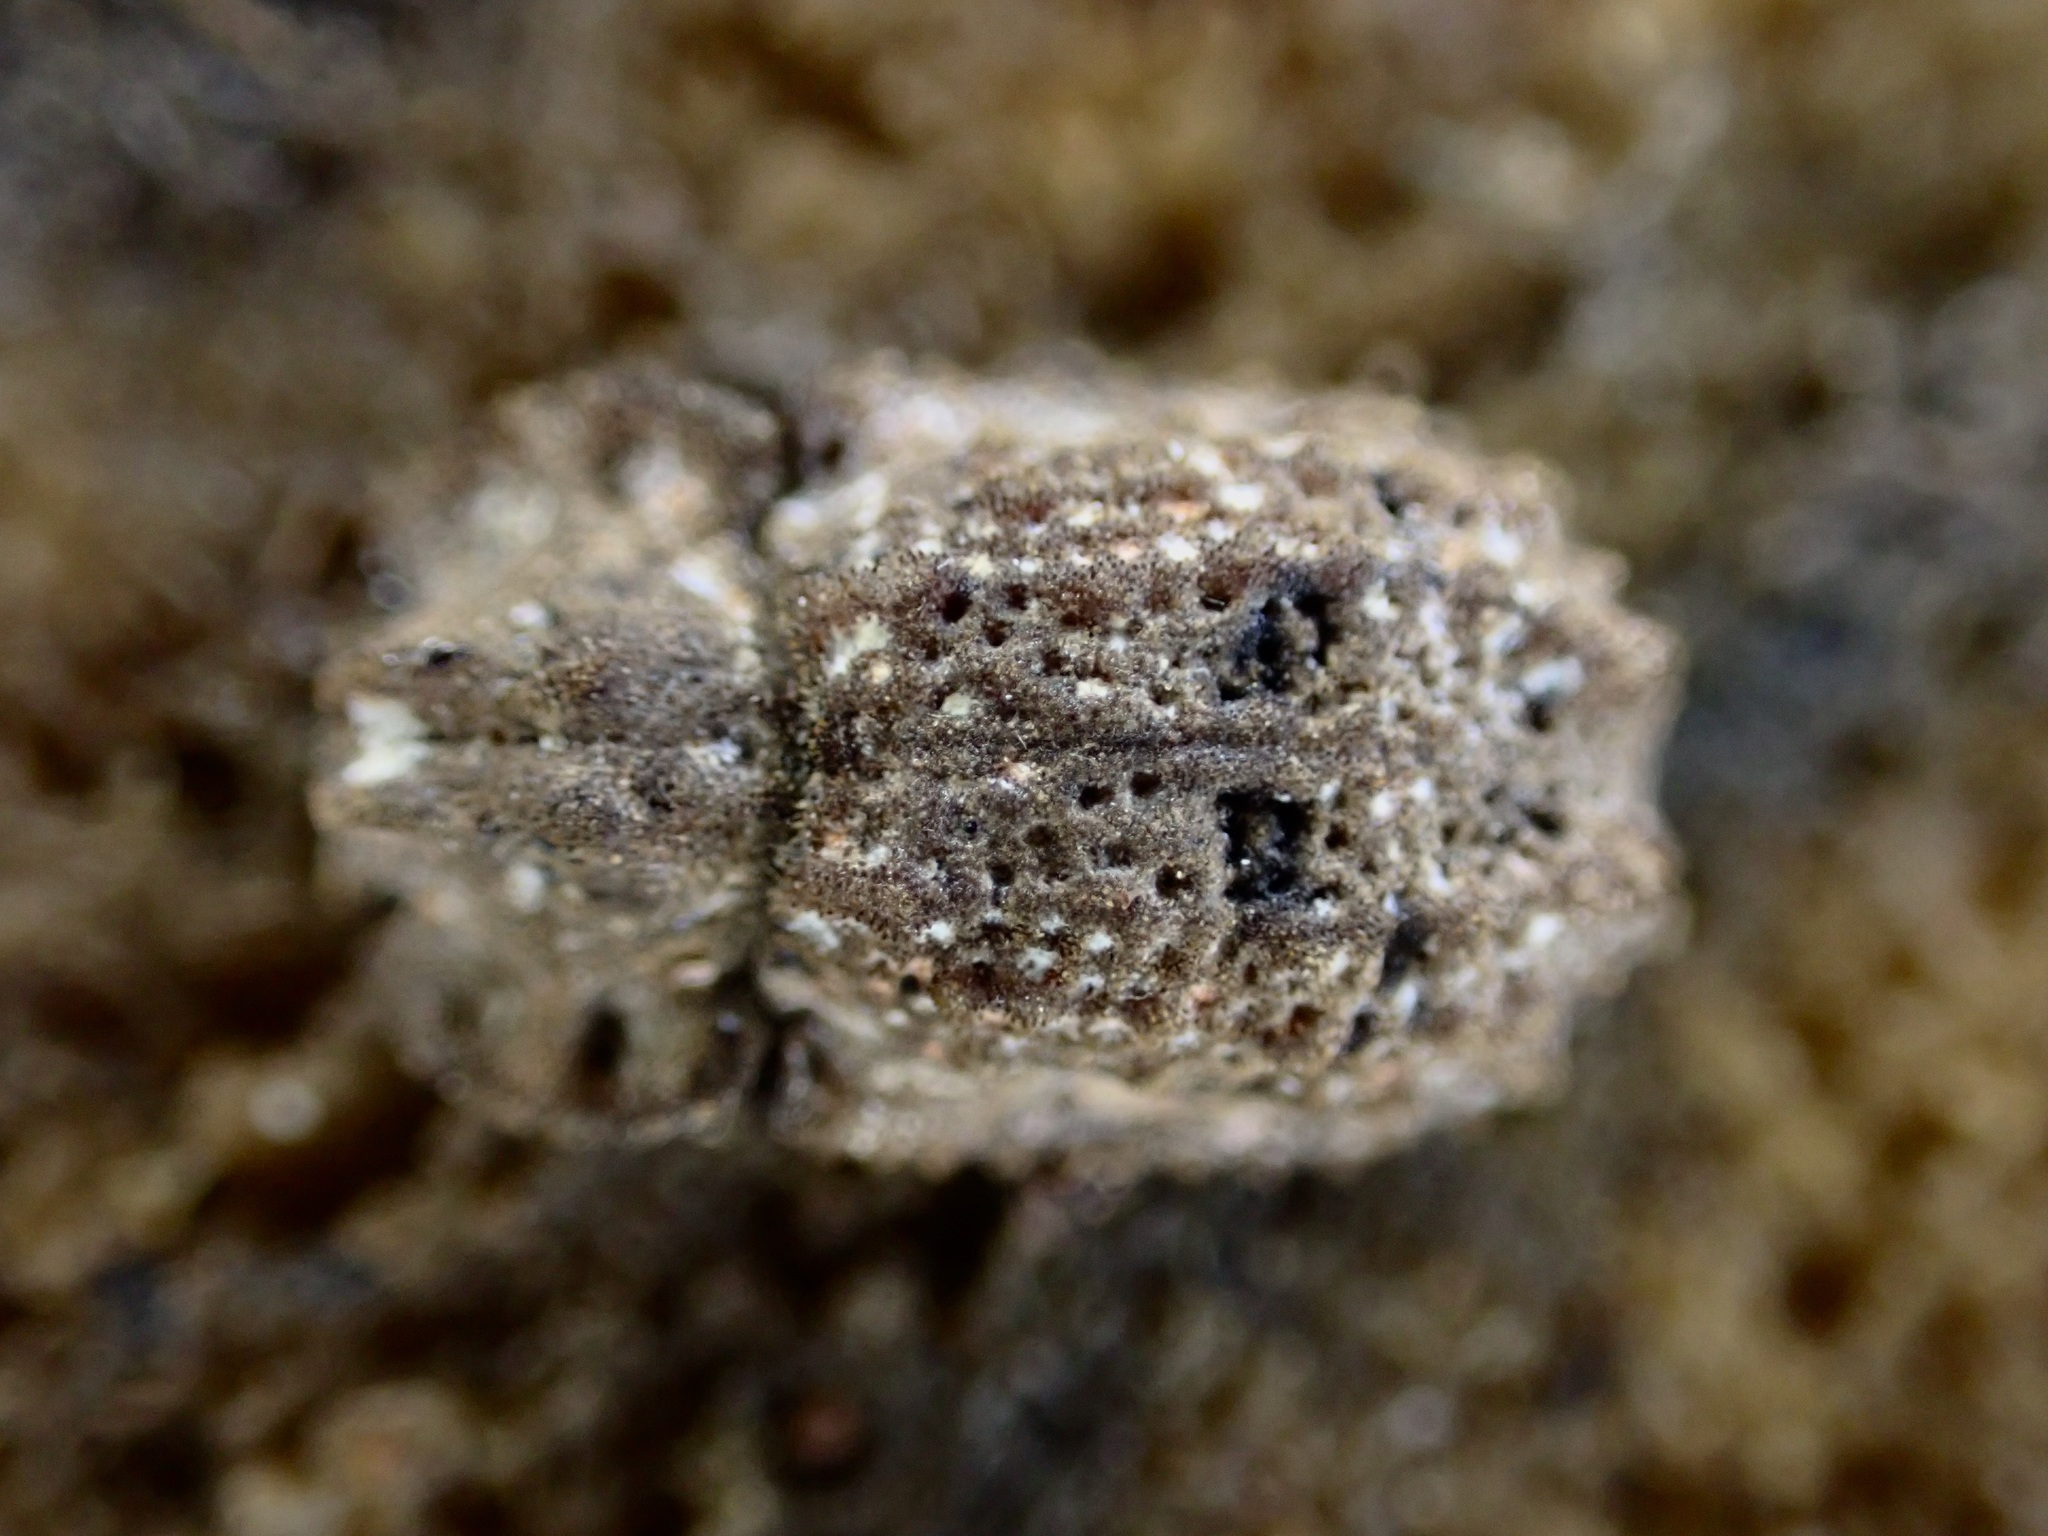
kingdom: Animalia
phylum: Arthropoda
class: Insecta
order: Coleoptera
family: Zopheridae
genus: Pristoderus
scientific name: Pristoderus
